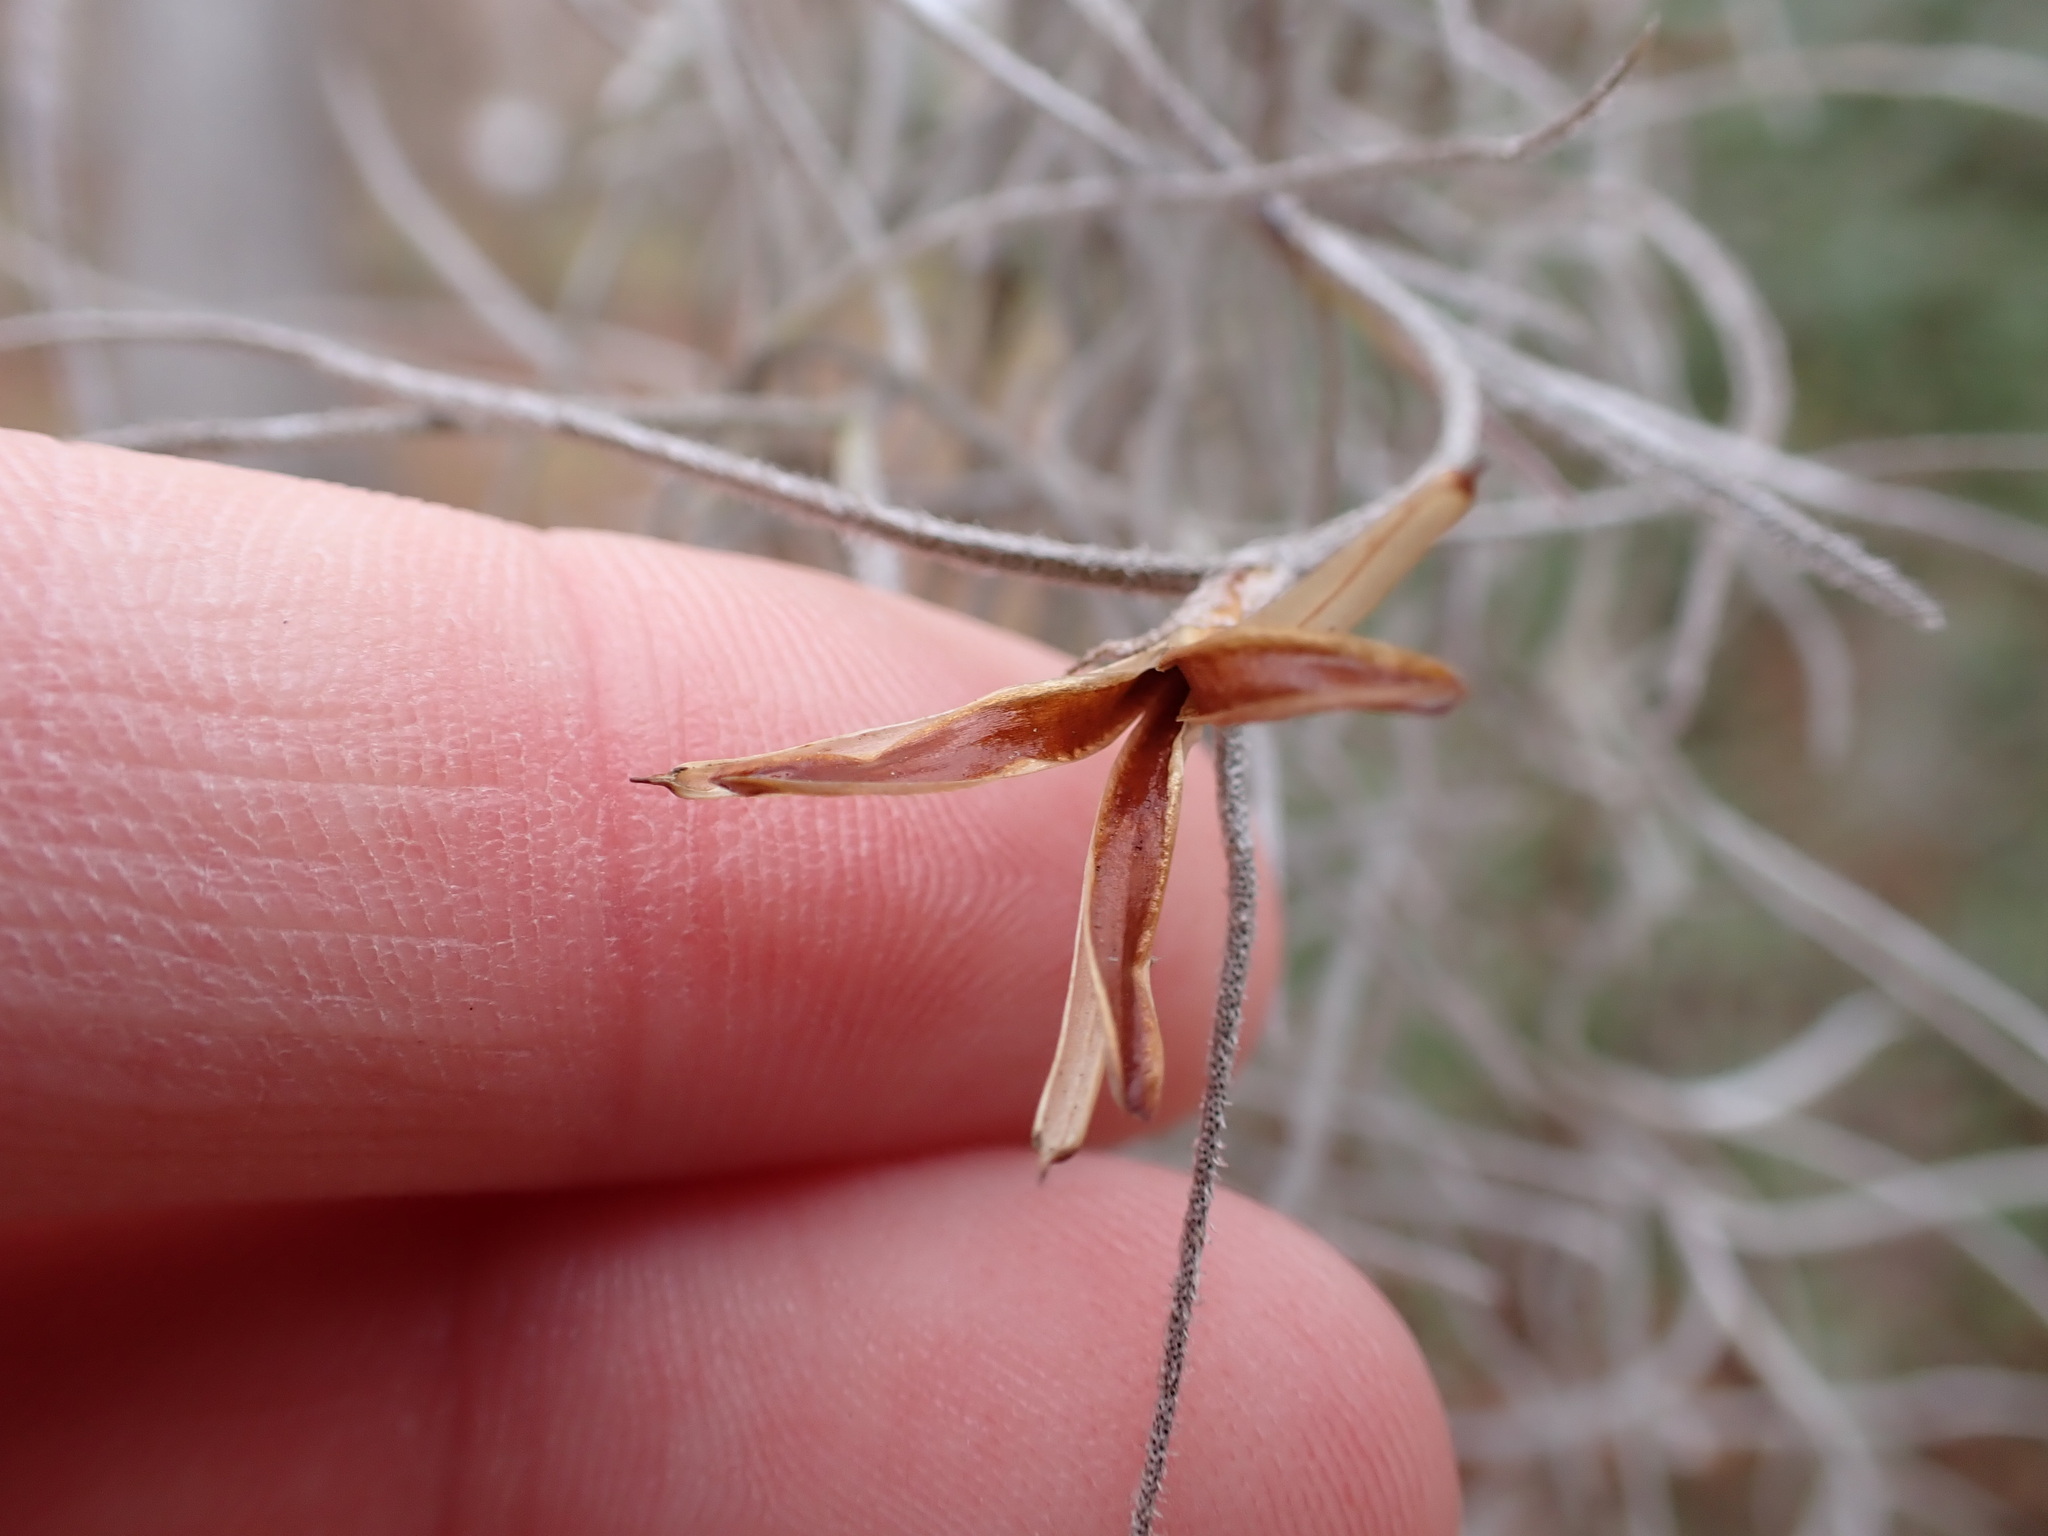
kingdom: Plantae
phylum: Tracheophyta
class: Liliopsida
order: Poales
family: Bromeliaceae
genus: Tillandsia
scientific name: Tillandsia usneoides
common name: Spanish moss
